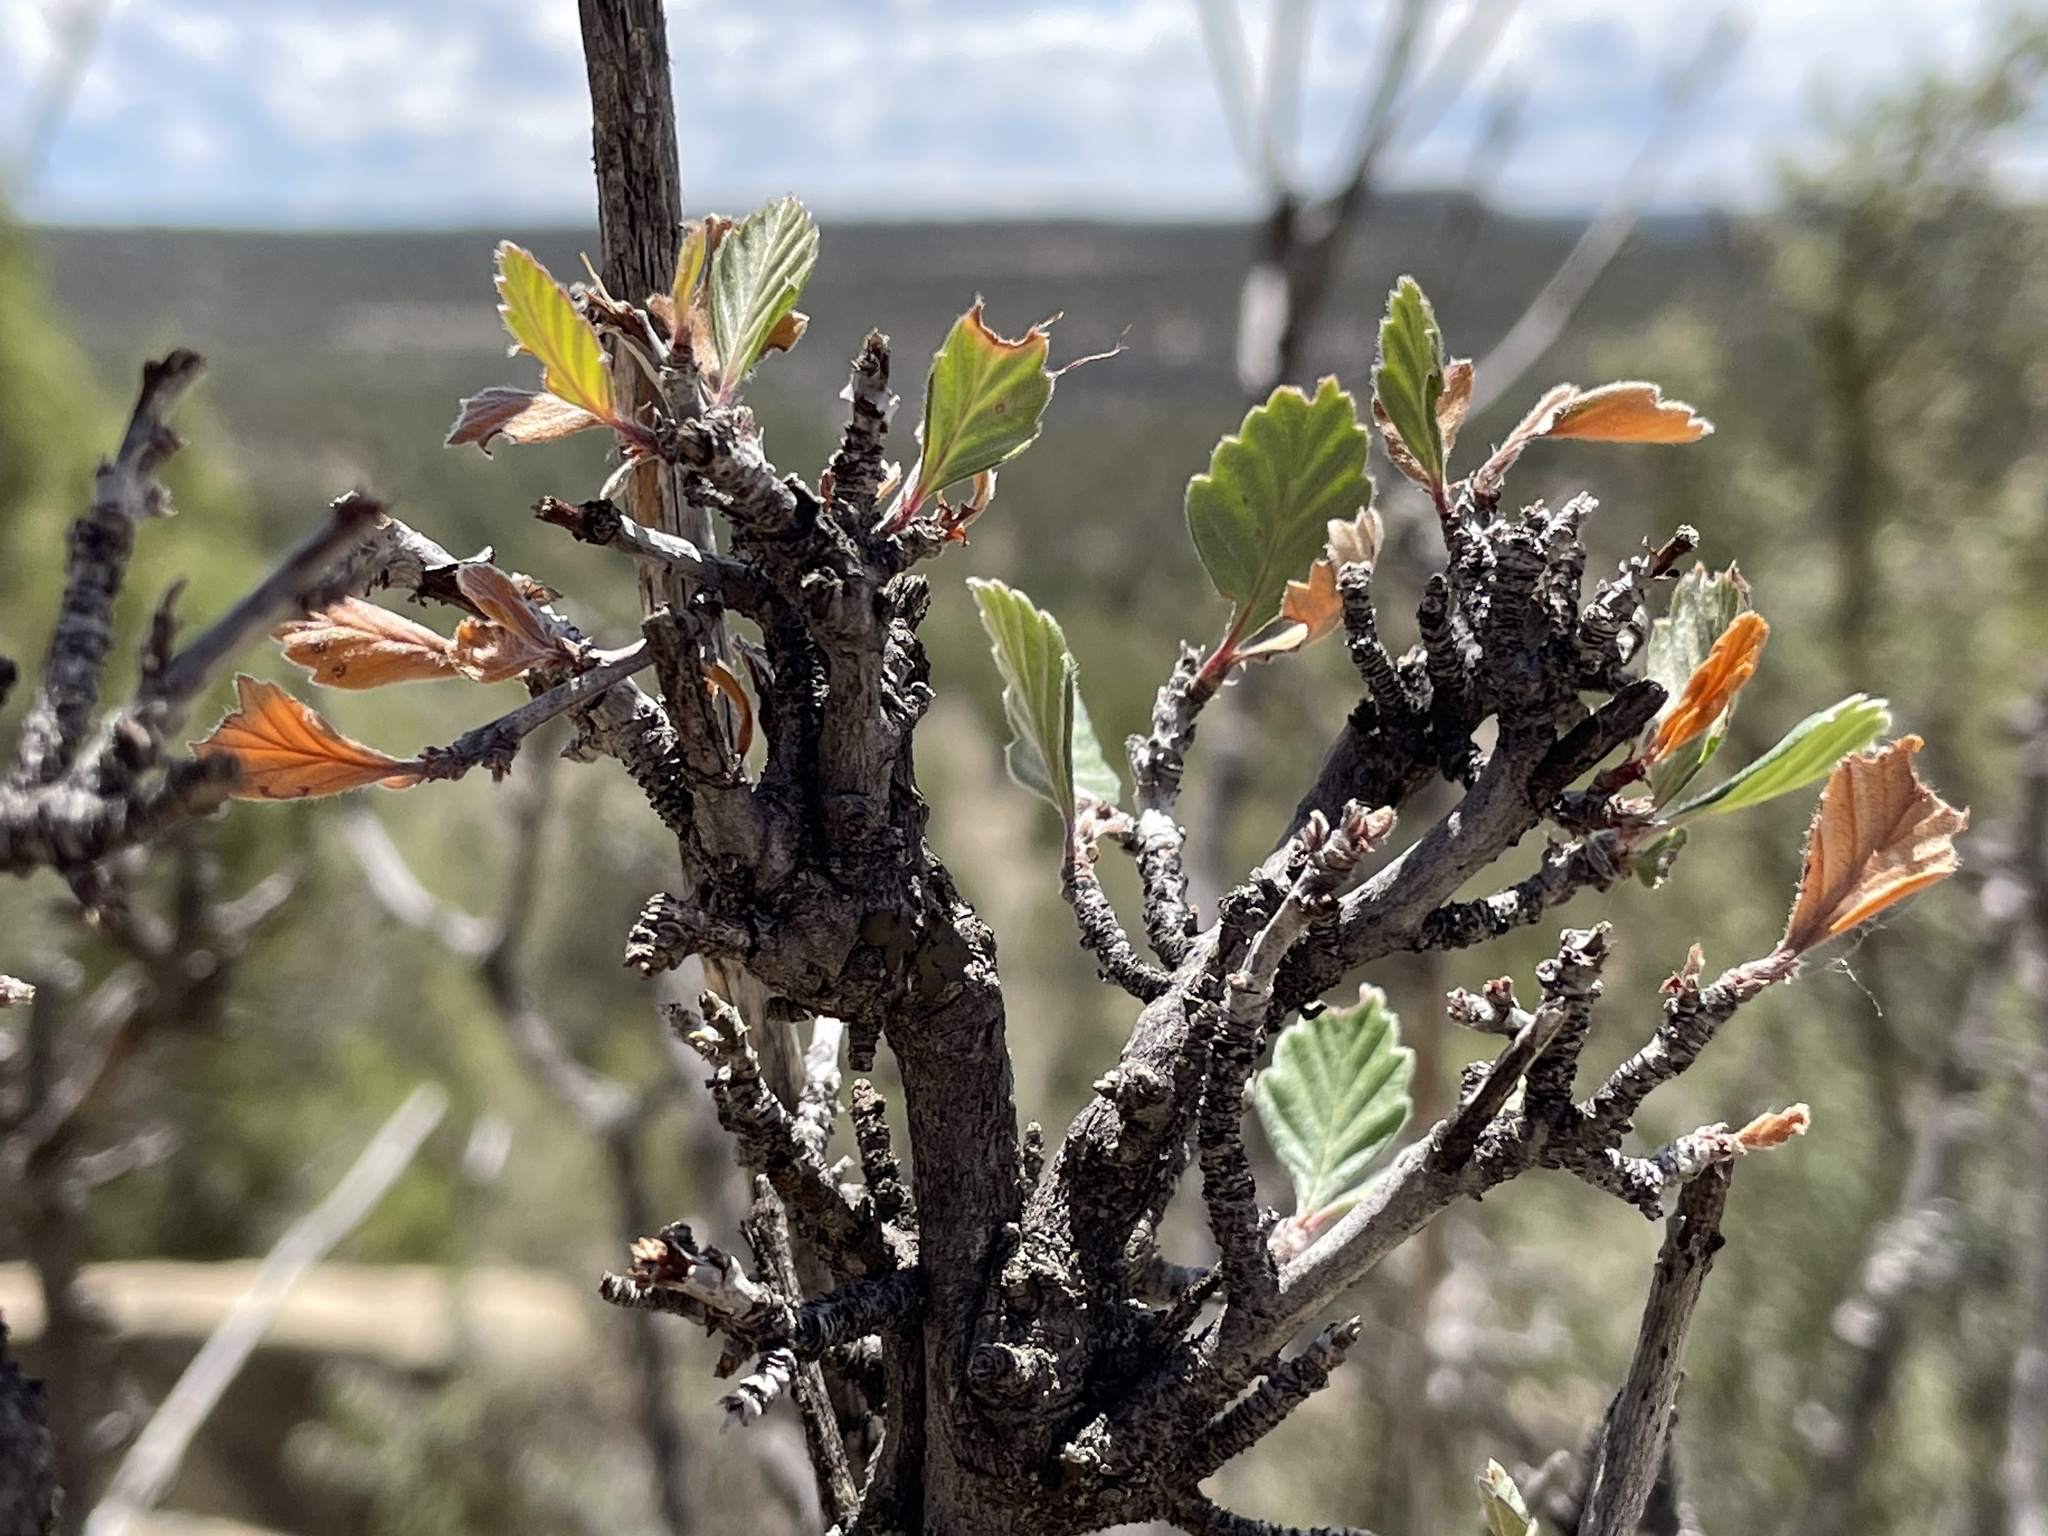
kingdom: Plantae
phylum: Tracheophyta
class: Magnoliopsida
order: Rosales
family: Rosaceae
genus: Cercocarpus
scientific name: Cercocarpus montanus
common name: Alder-leaf cercocarpus
